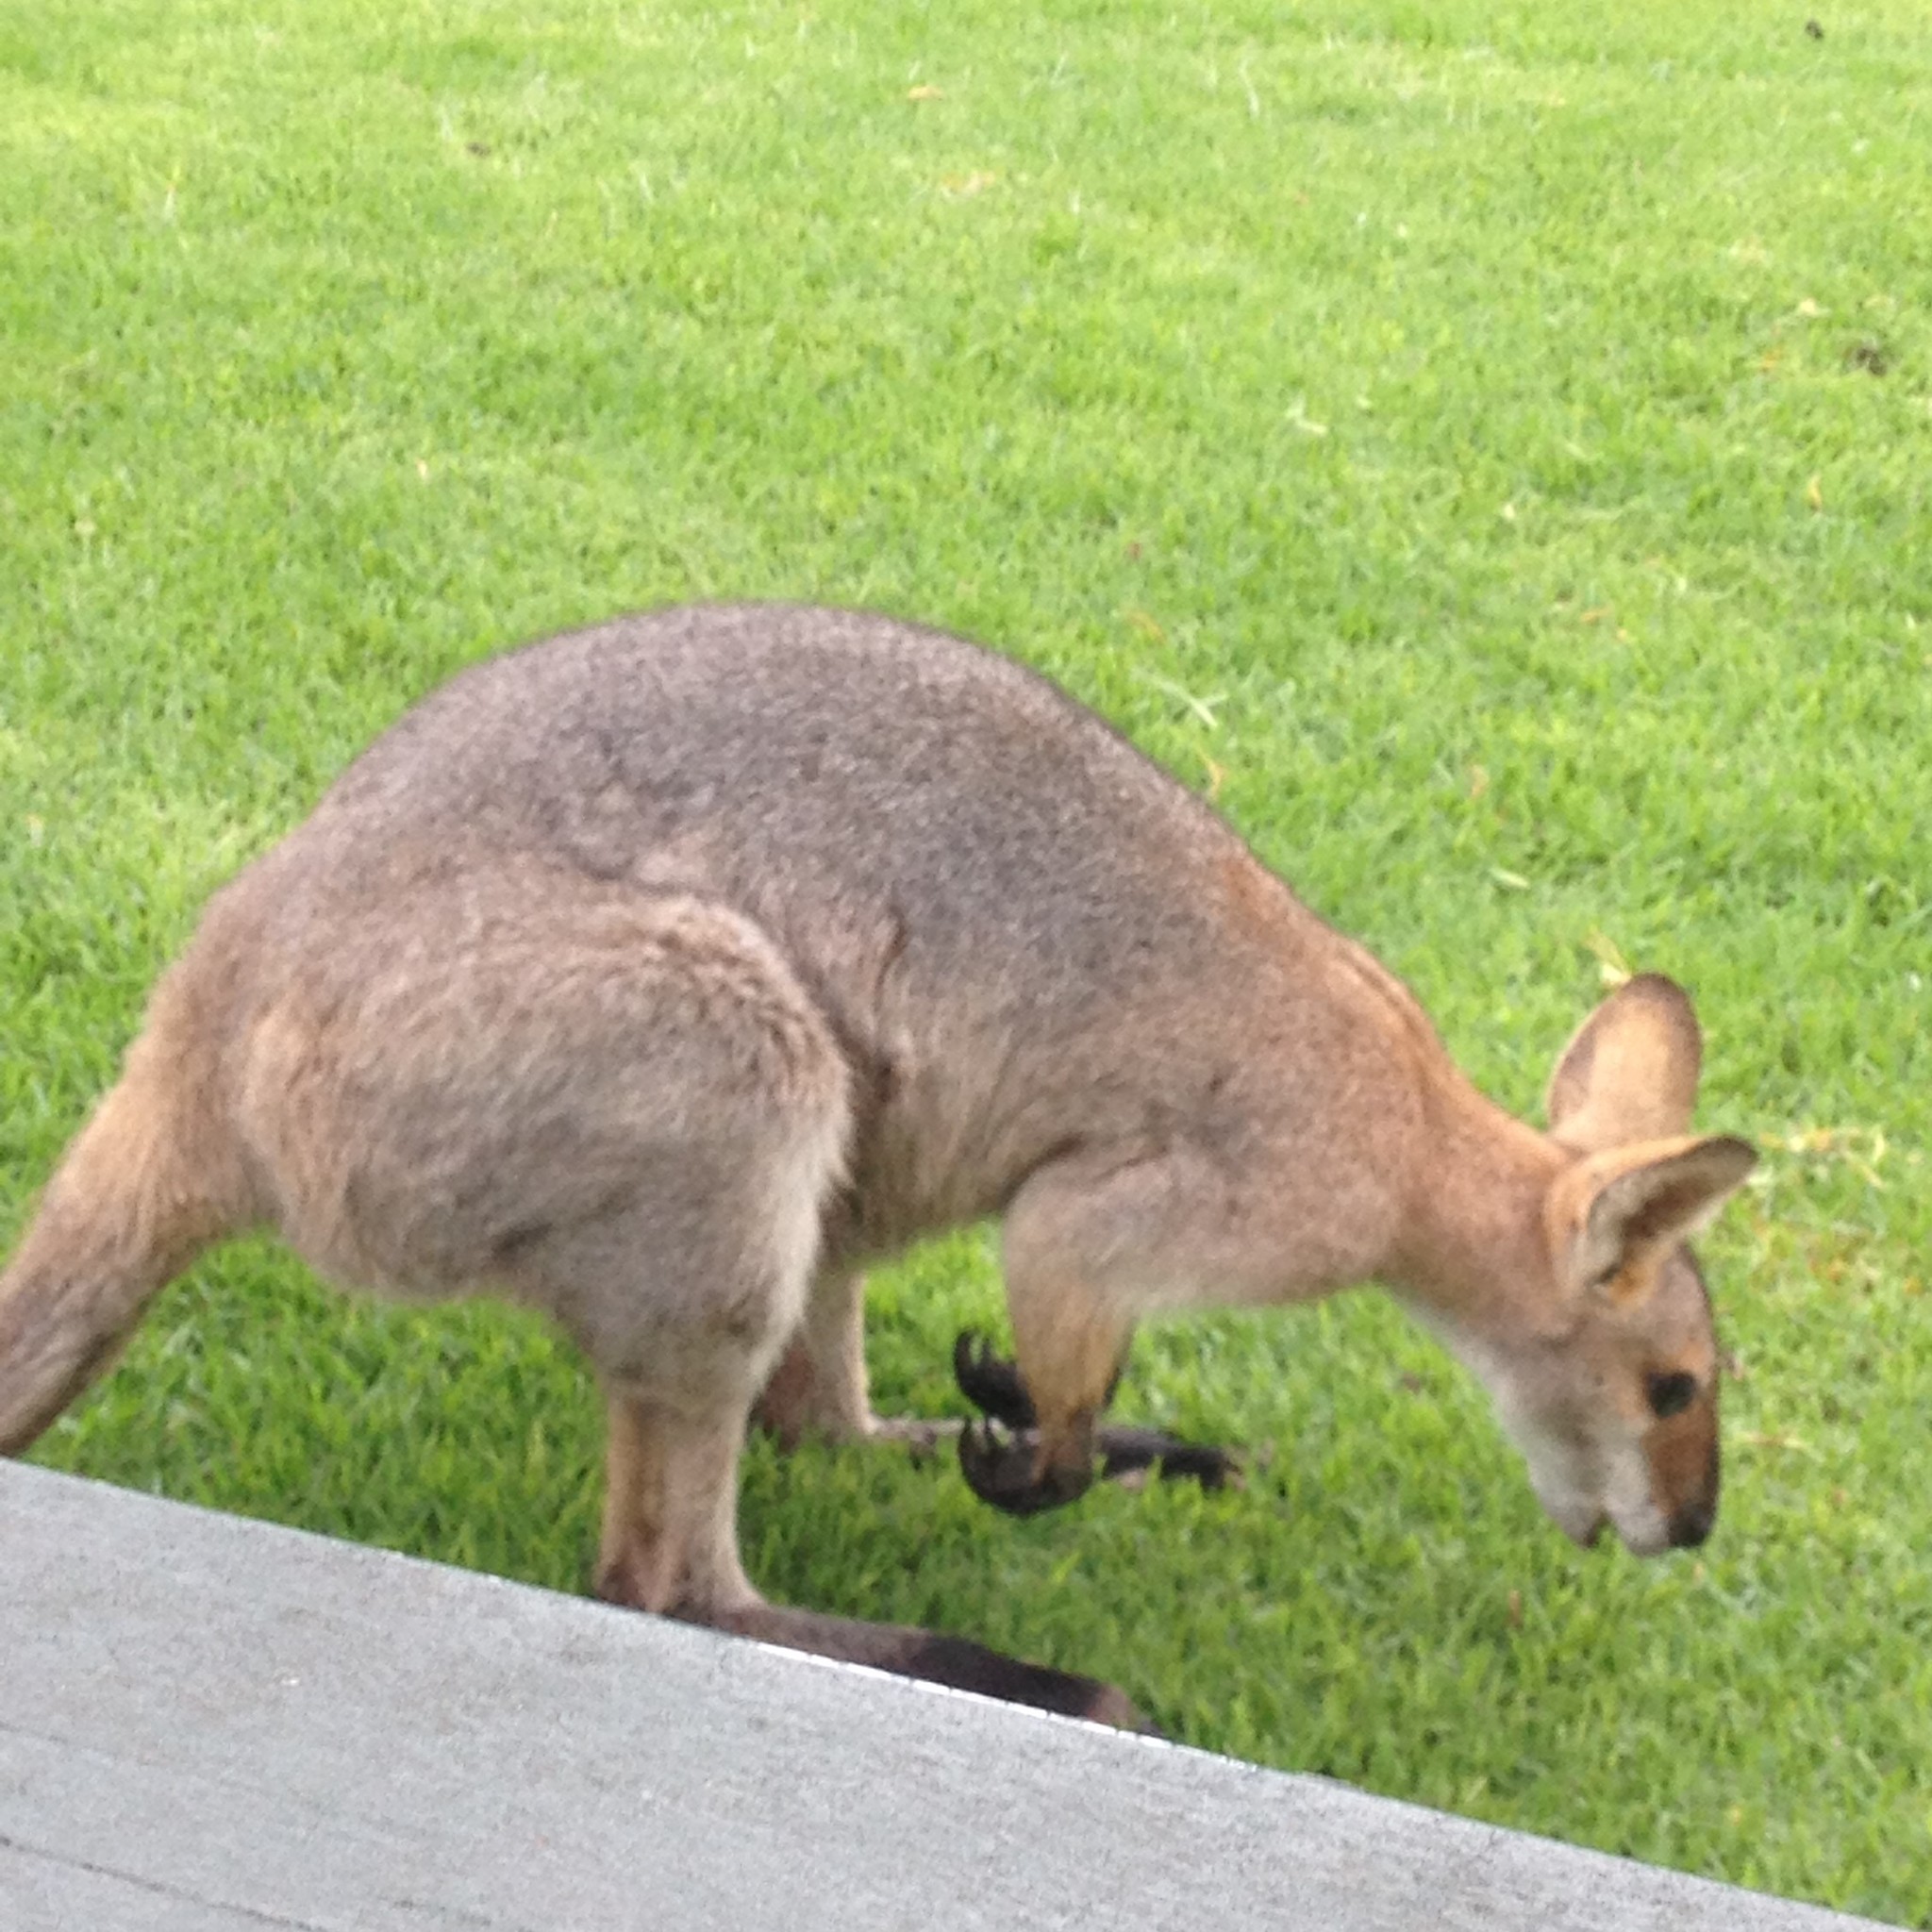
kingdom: Animalia
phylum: Chordata
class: Mammalia
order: Diprotodontia
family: Macropodidae
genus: Notamacropus
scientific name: Notamacropus rufogriseus
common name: Red-necked wallaby
